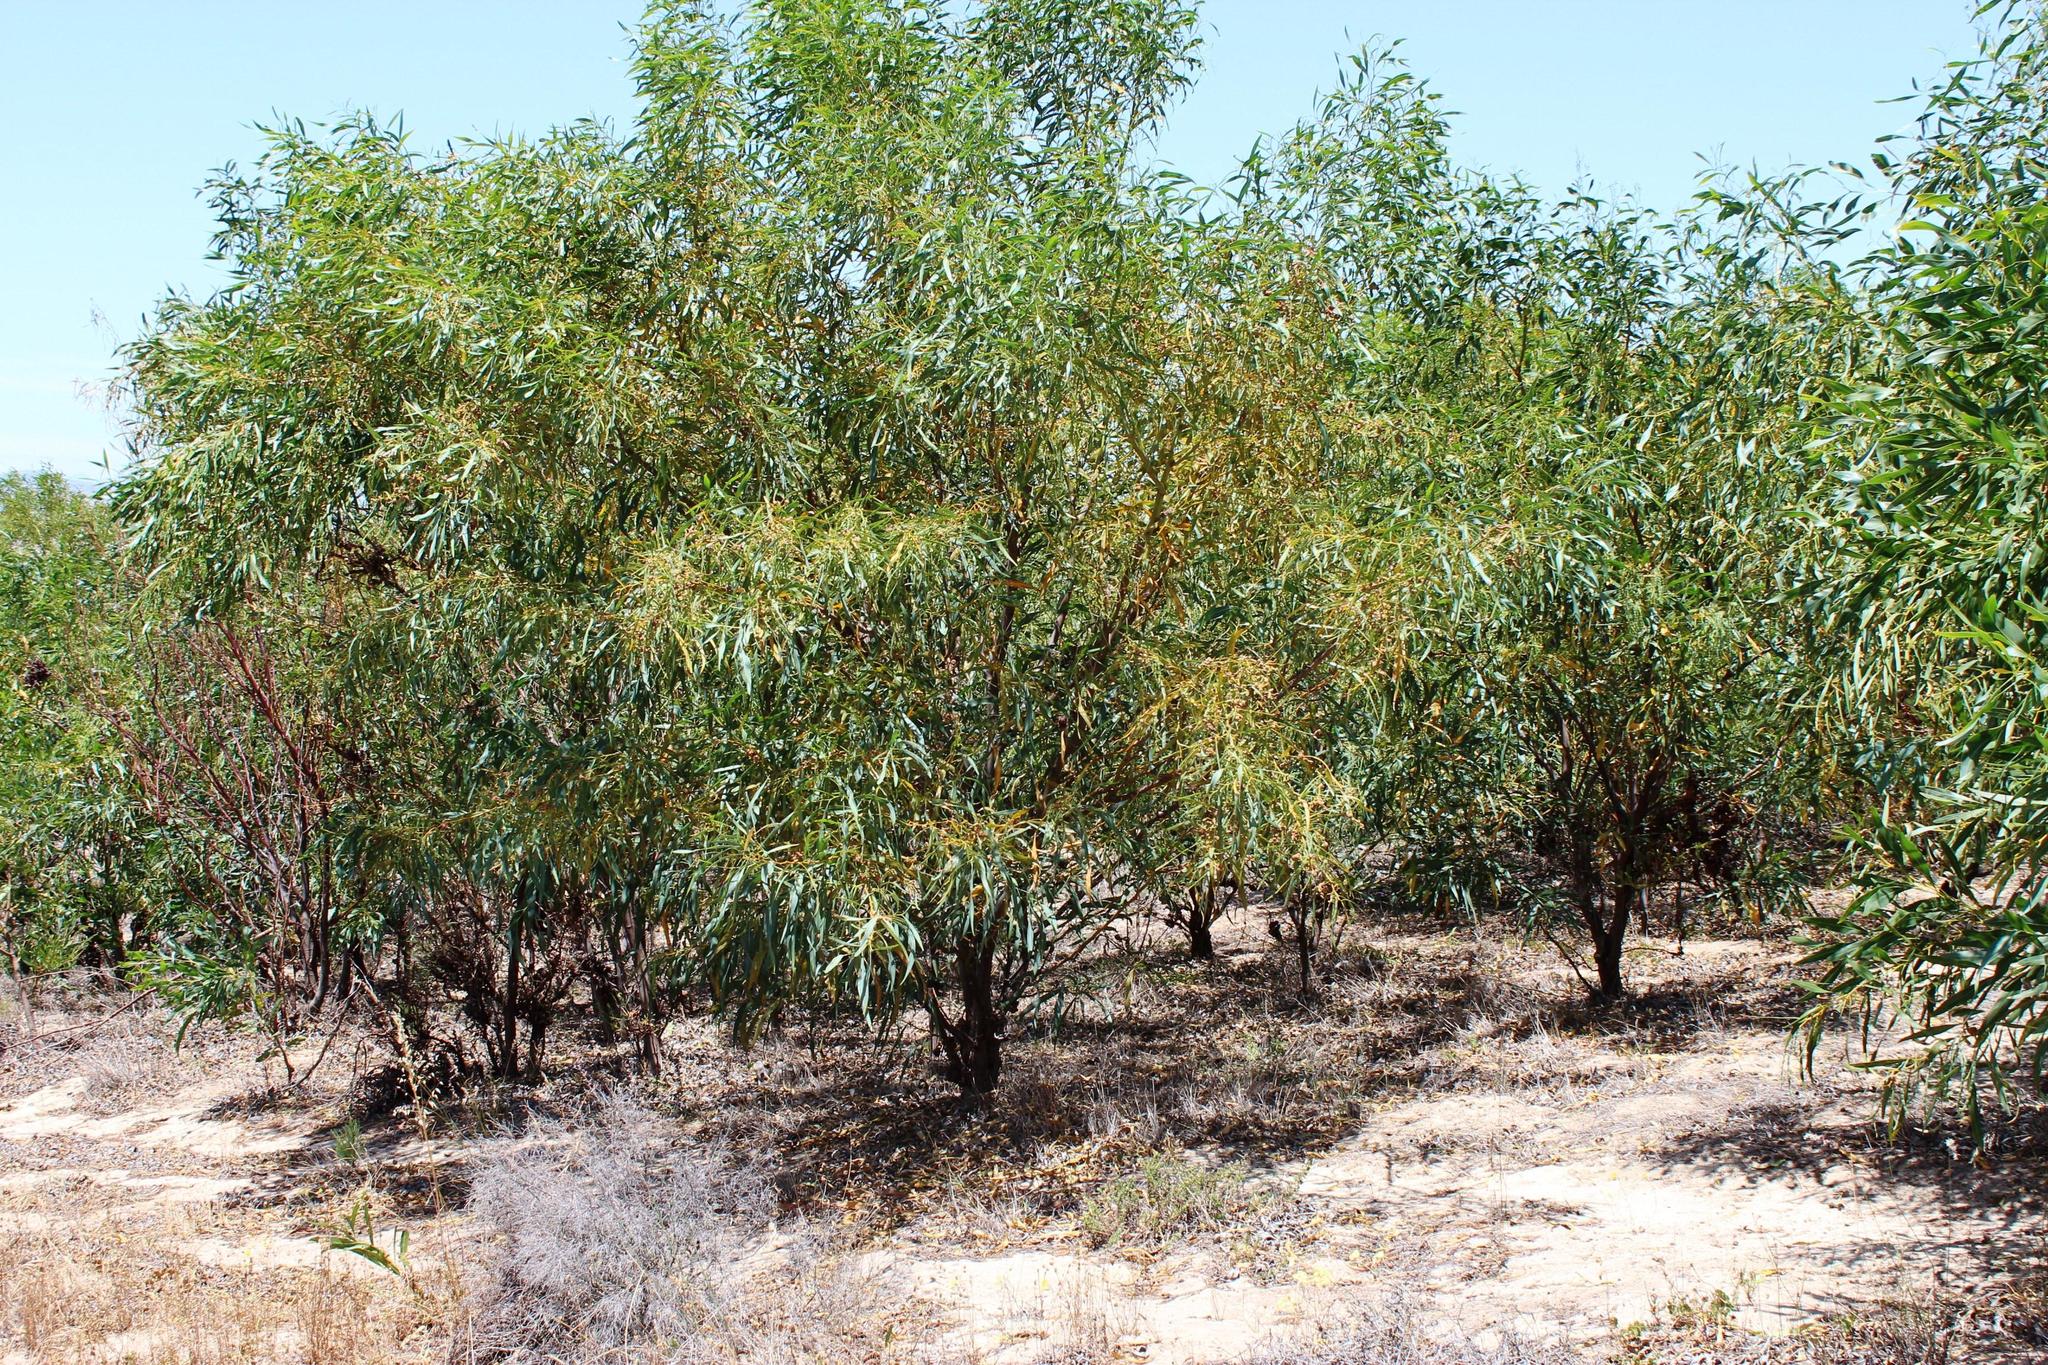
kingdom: Plantae
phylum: Tracheophyta
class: Magnoliopsida
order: Fabales
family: Fabaceae
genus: Acacia
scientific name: Acacia saligna
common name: Orange wattle
